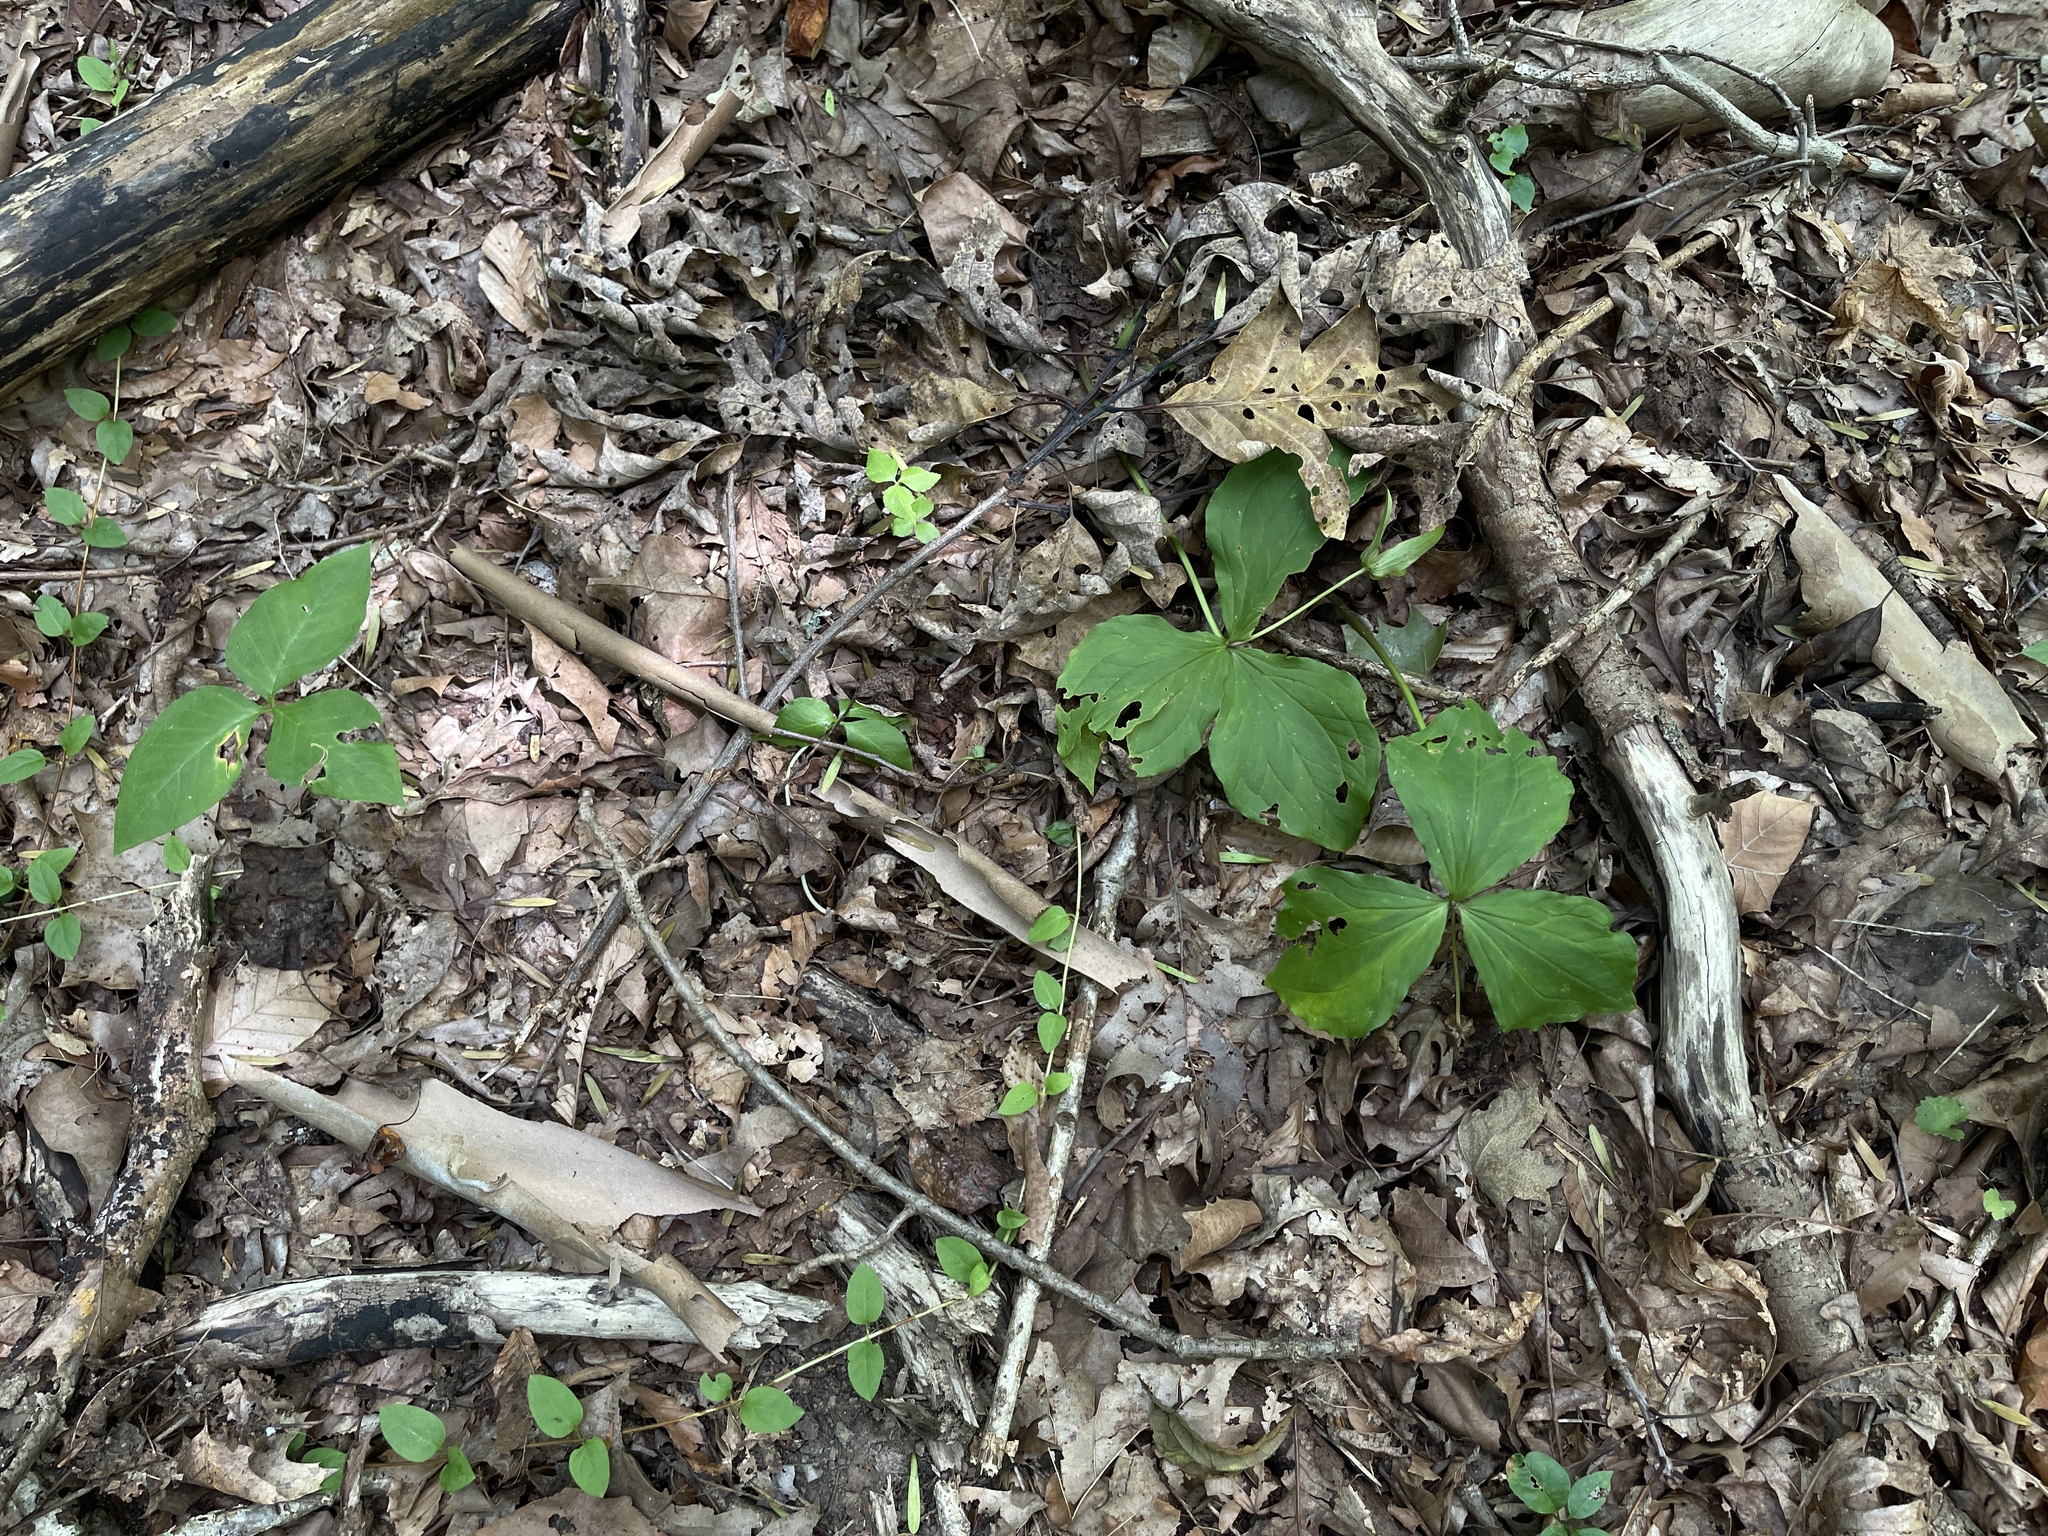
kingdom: Plantae
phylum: Tracheophyta
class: Liliopsida
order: Liliales
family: Melanthiaceae
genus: Trillium
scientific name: Trillium grandiflorum
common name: Great white trillium
